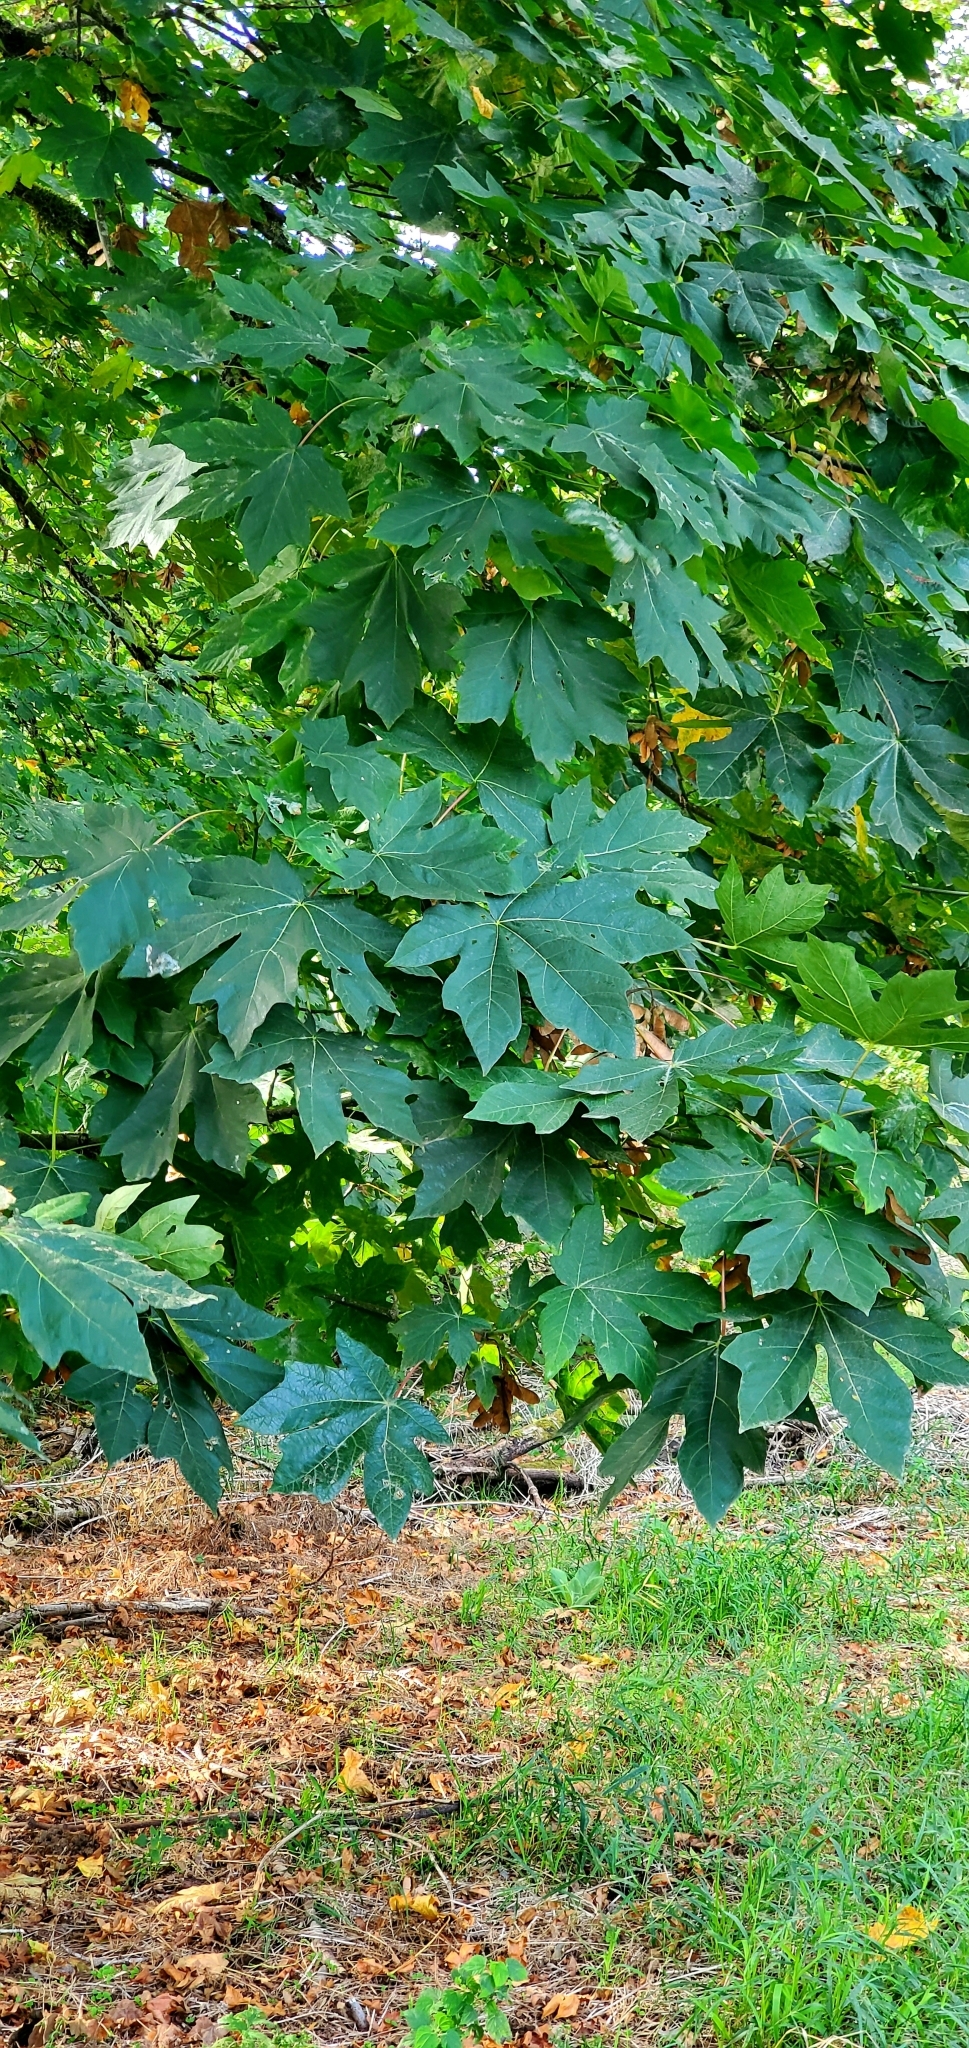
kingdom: Plantae
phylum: Tracheophyta
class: Magnoliopsida
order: Sapindales
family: Sapindaceae
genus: Acer
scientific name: Acer macrophyllum
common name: Oregon maple
